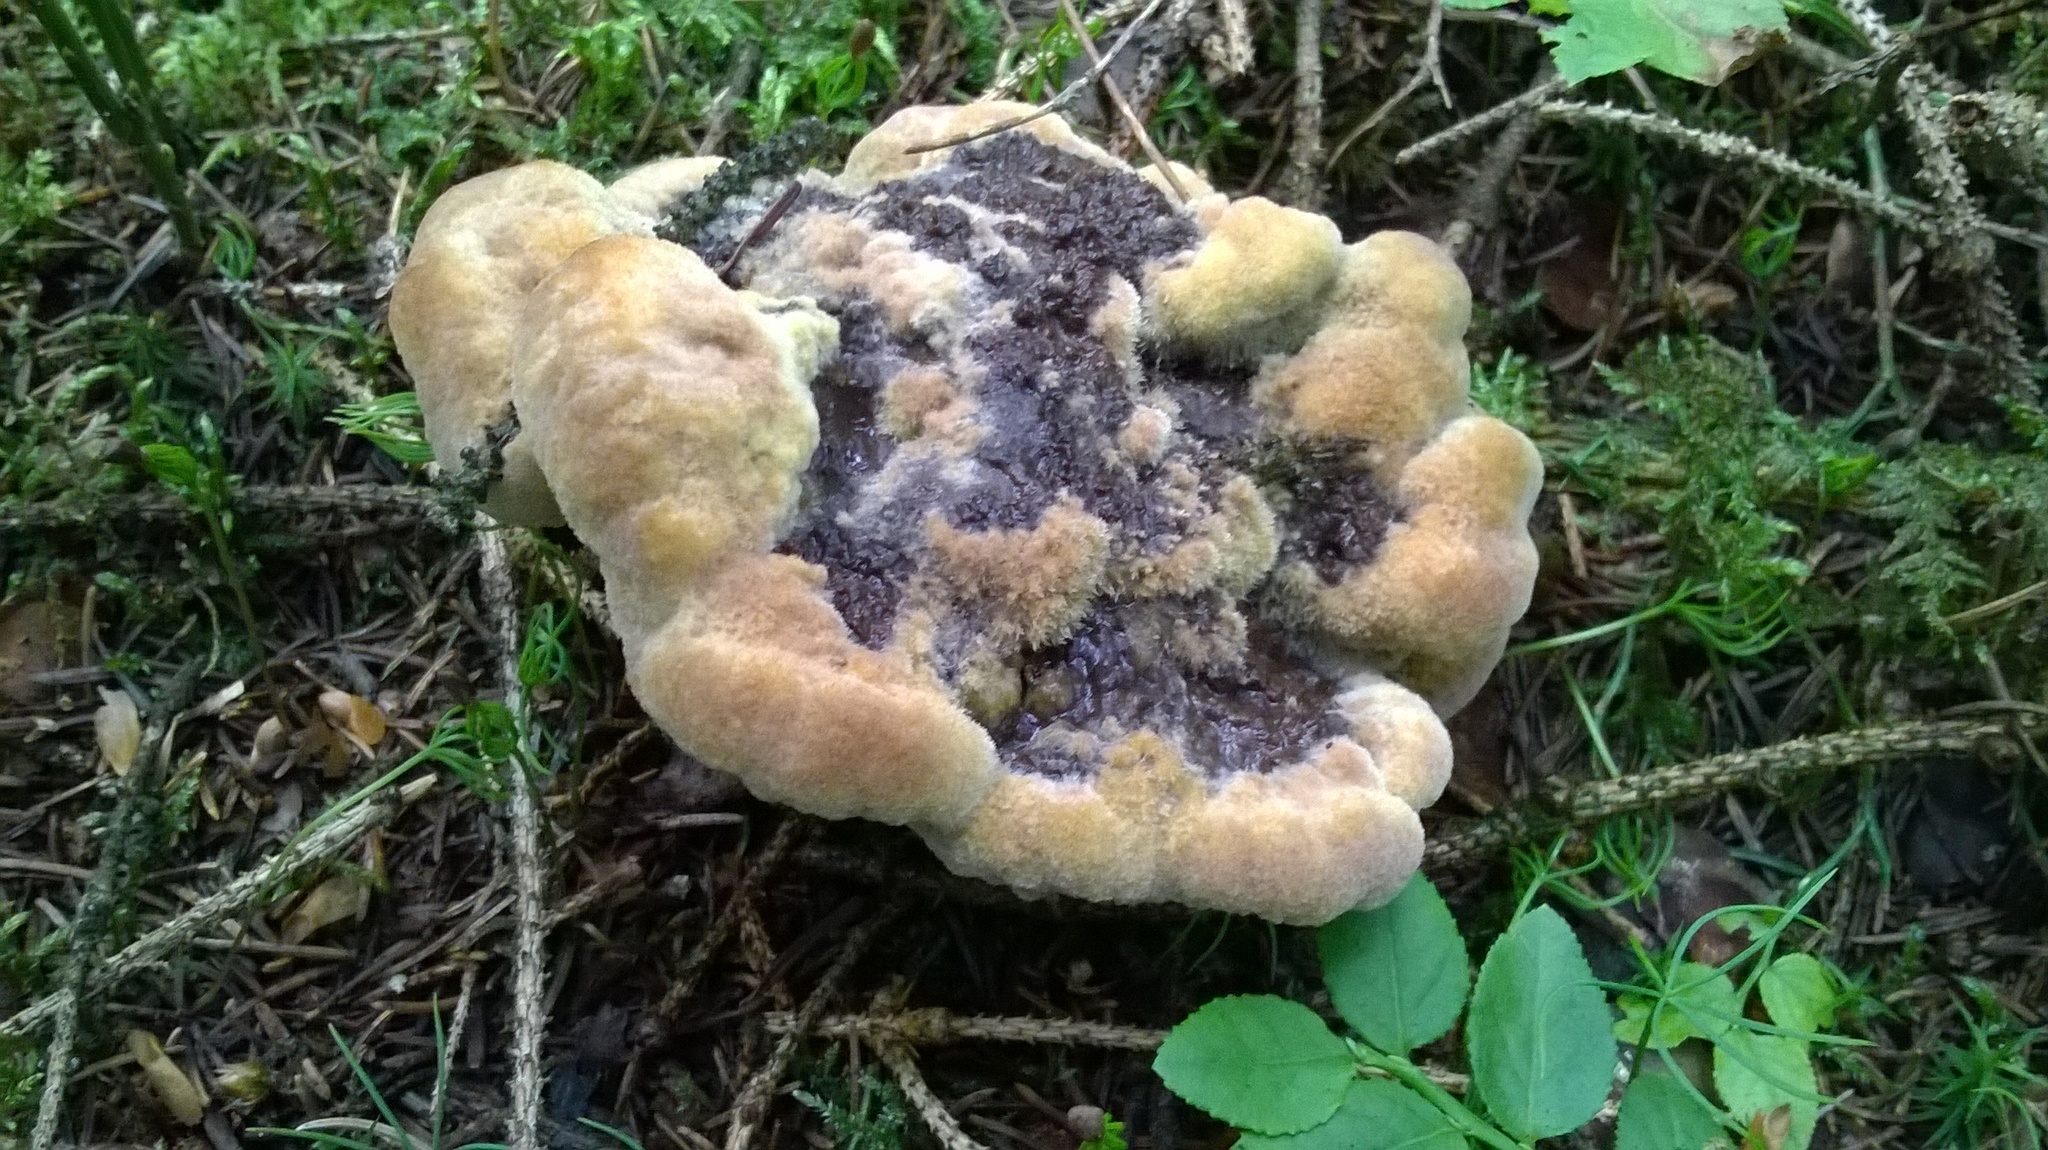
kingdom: Fungi
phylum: Basidiomycota
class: Agaricomycetes
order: Polyporales
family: Laetiporaceae
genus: Phaeolus
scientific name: Phaeolus schweinitzii
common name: Dyer's mazegill
